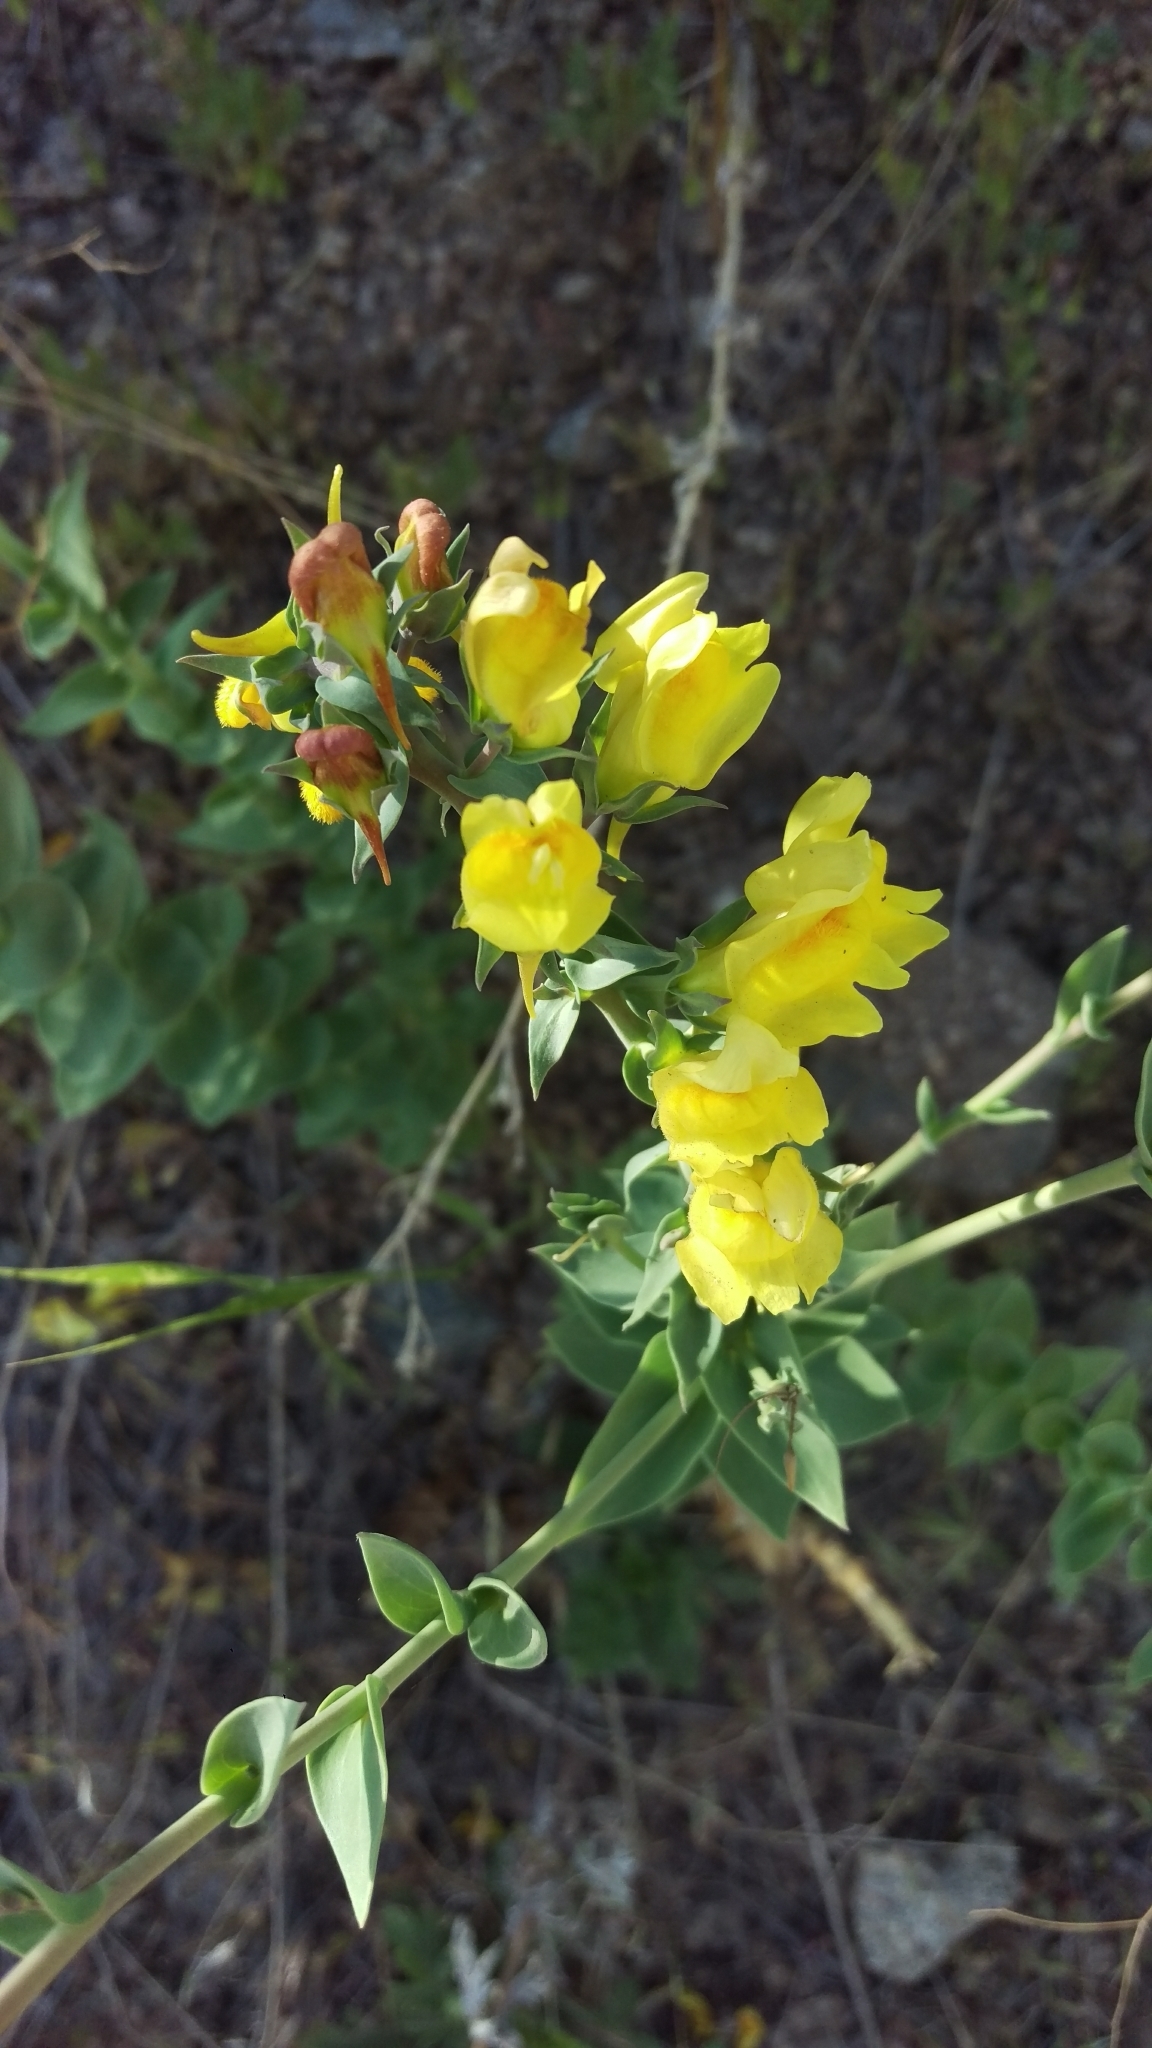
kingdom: Plantae
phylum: Tracheophyta
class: Magnoliopsida
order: Lamiales
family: Plantaginaceae
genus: Linaria
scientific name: Linaria dalmatica
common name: Dalmatian toadflax
